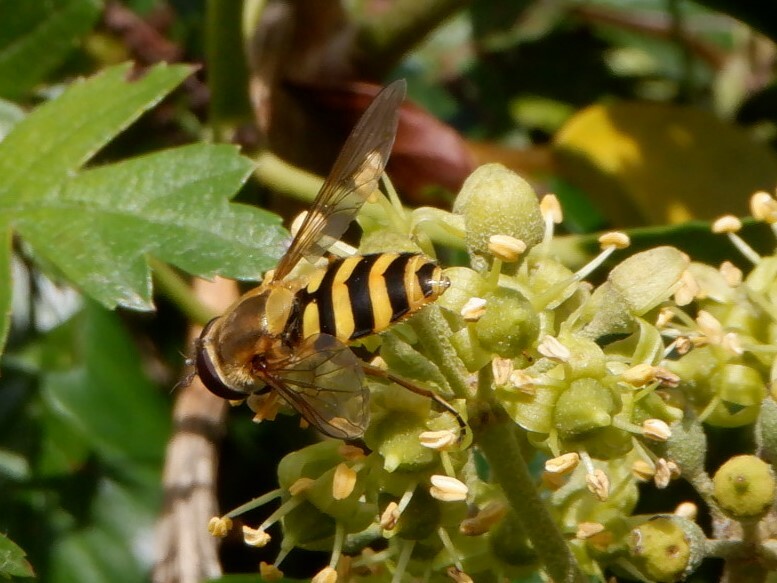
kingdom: Animalia
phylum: Arthropoda
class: Insecta
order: Diptera
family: Syrphidae
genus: Syrphus
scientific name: Syrphus ribesii
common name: Common flower fly
